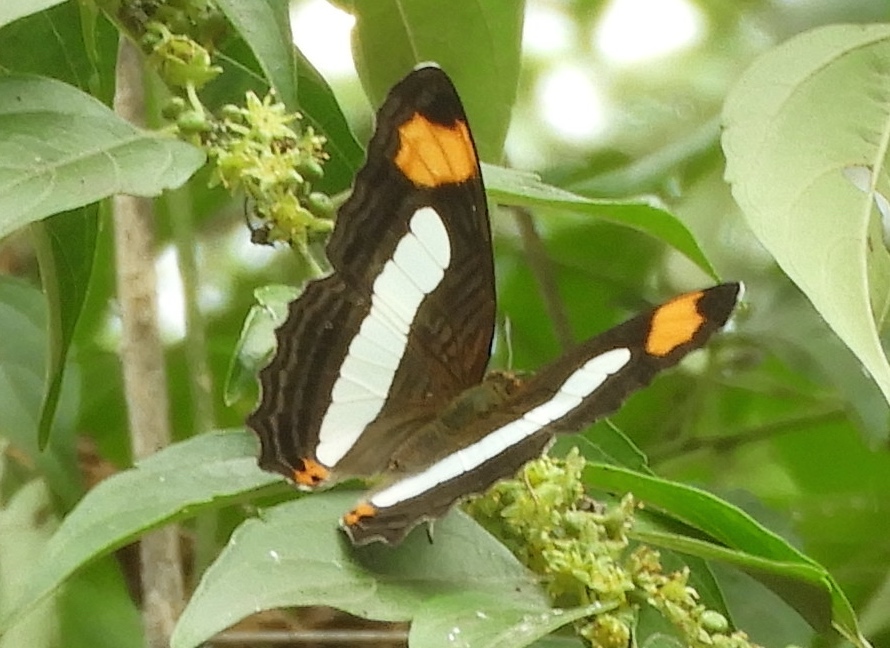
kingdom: Animalia
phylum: Arthropoda
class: Insecta
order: Lepidoptera
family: Nymphalidae
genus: Limenitis
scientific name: Limenitis
